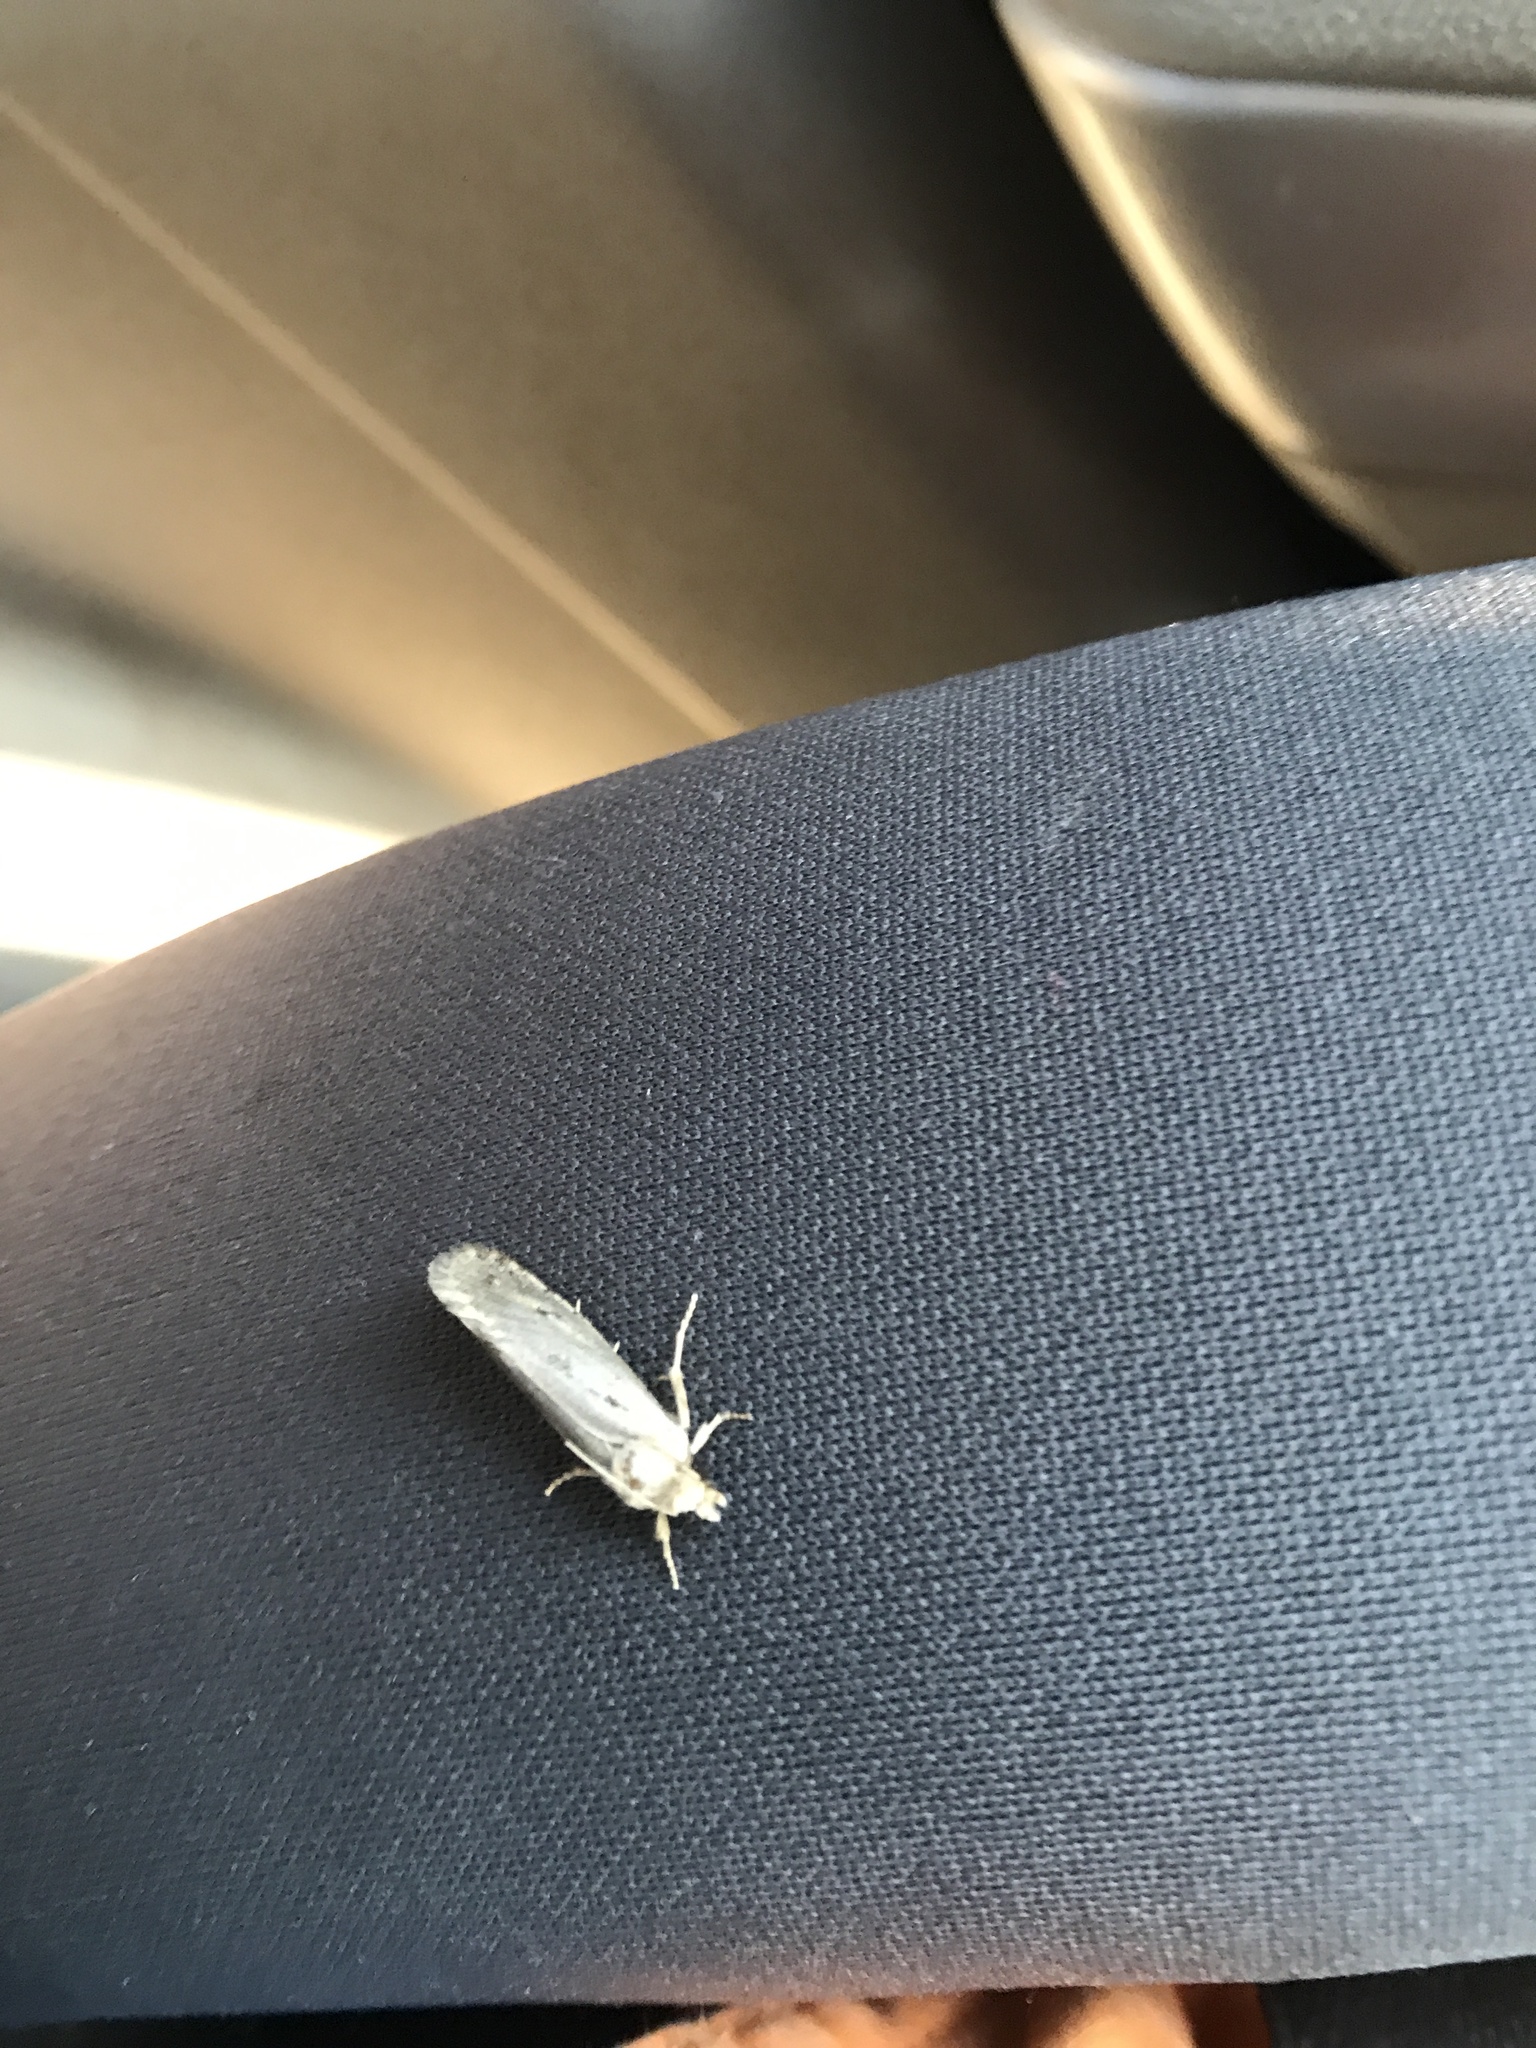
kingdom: Animalia
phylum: Arthropoda
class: Insecta
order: Lepidoptera
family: Tineidae
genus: Acrolophus
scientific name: Acrolophus popeanella
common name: Clemens' grass tubeworm moth
